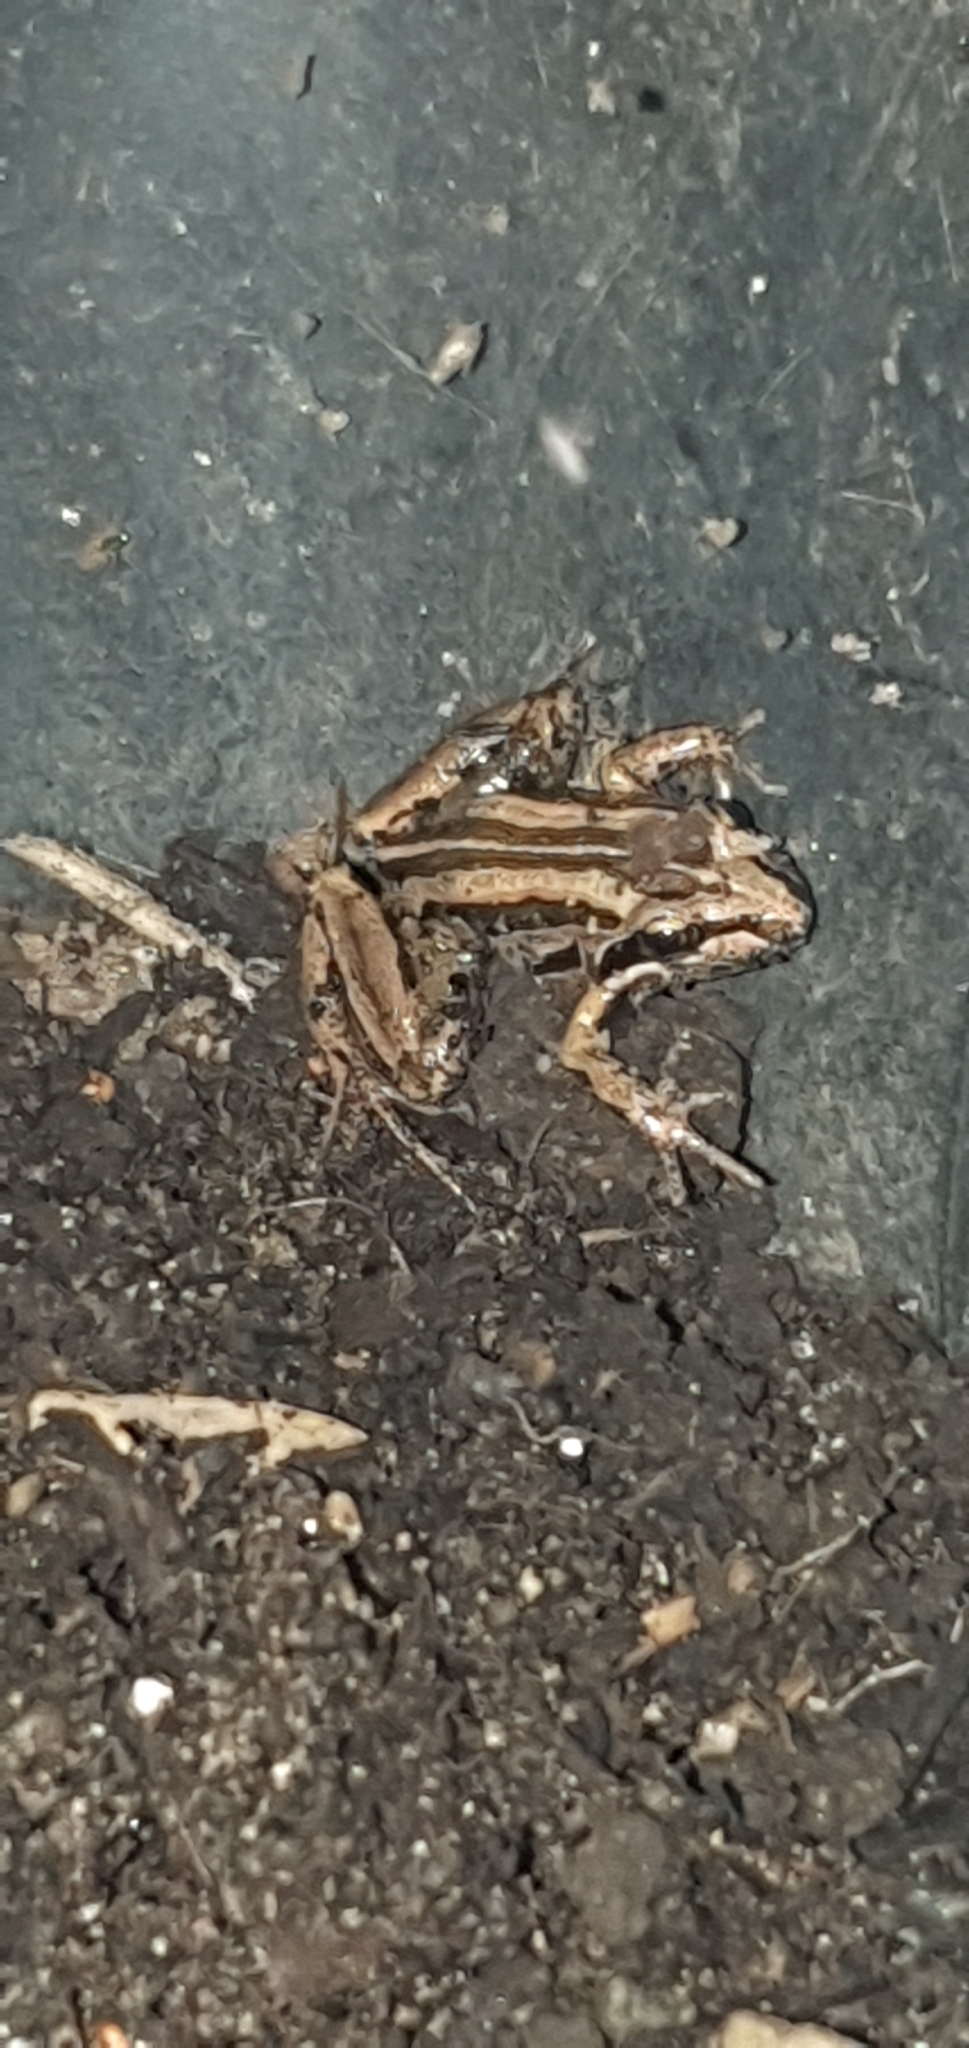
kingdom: Animalia
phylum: Chordata
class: Amphibia
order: Anura
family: Limnodynastidae
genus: Limnodynastes
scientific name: Limnodynastes peronii
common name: Brown frog
